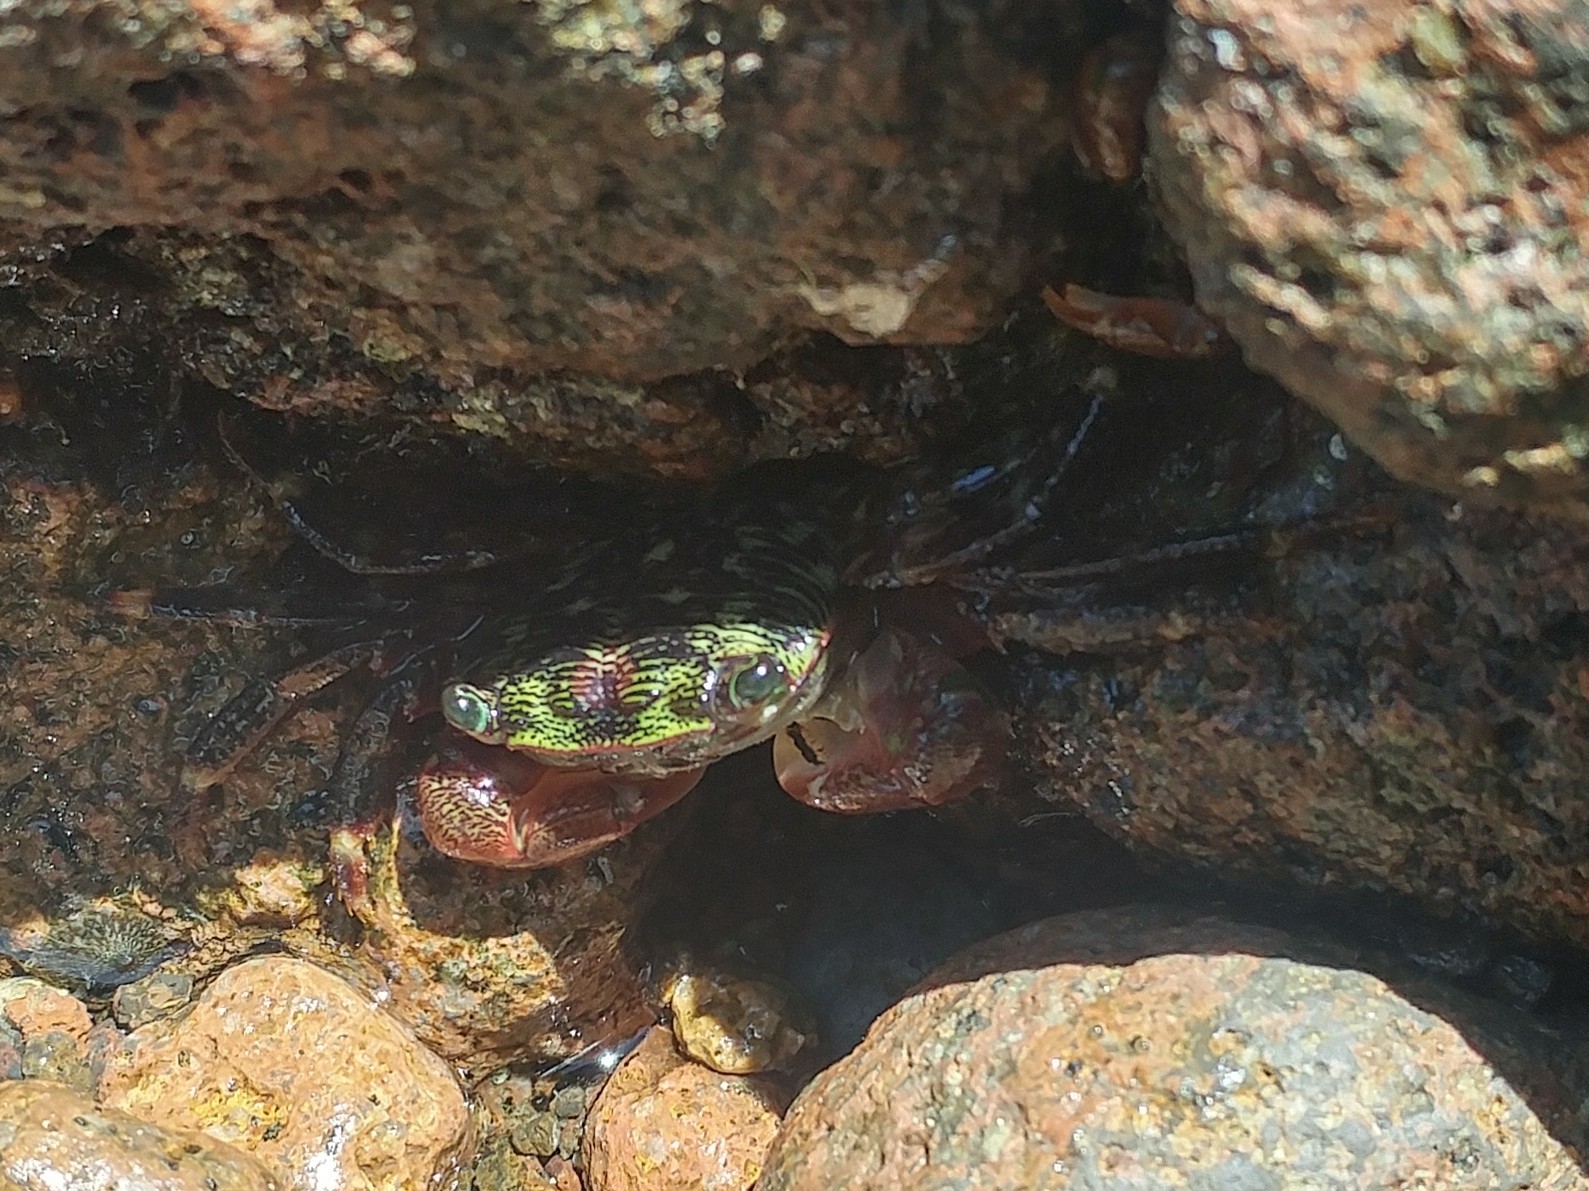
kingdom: Animalia
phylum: Arthropoda
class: Malacostraca
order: Decapoda
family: Grapsidae
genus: Pachygrapsus
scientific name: Pachygrapsus crassipes
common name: Striped shore crab
